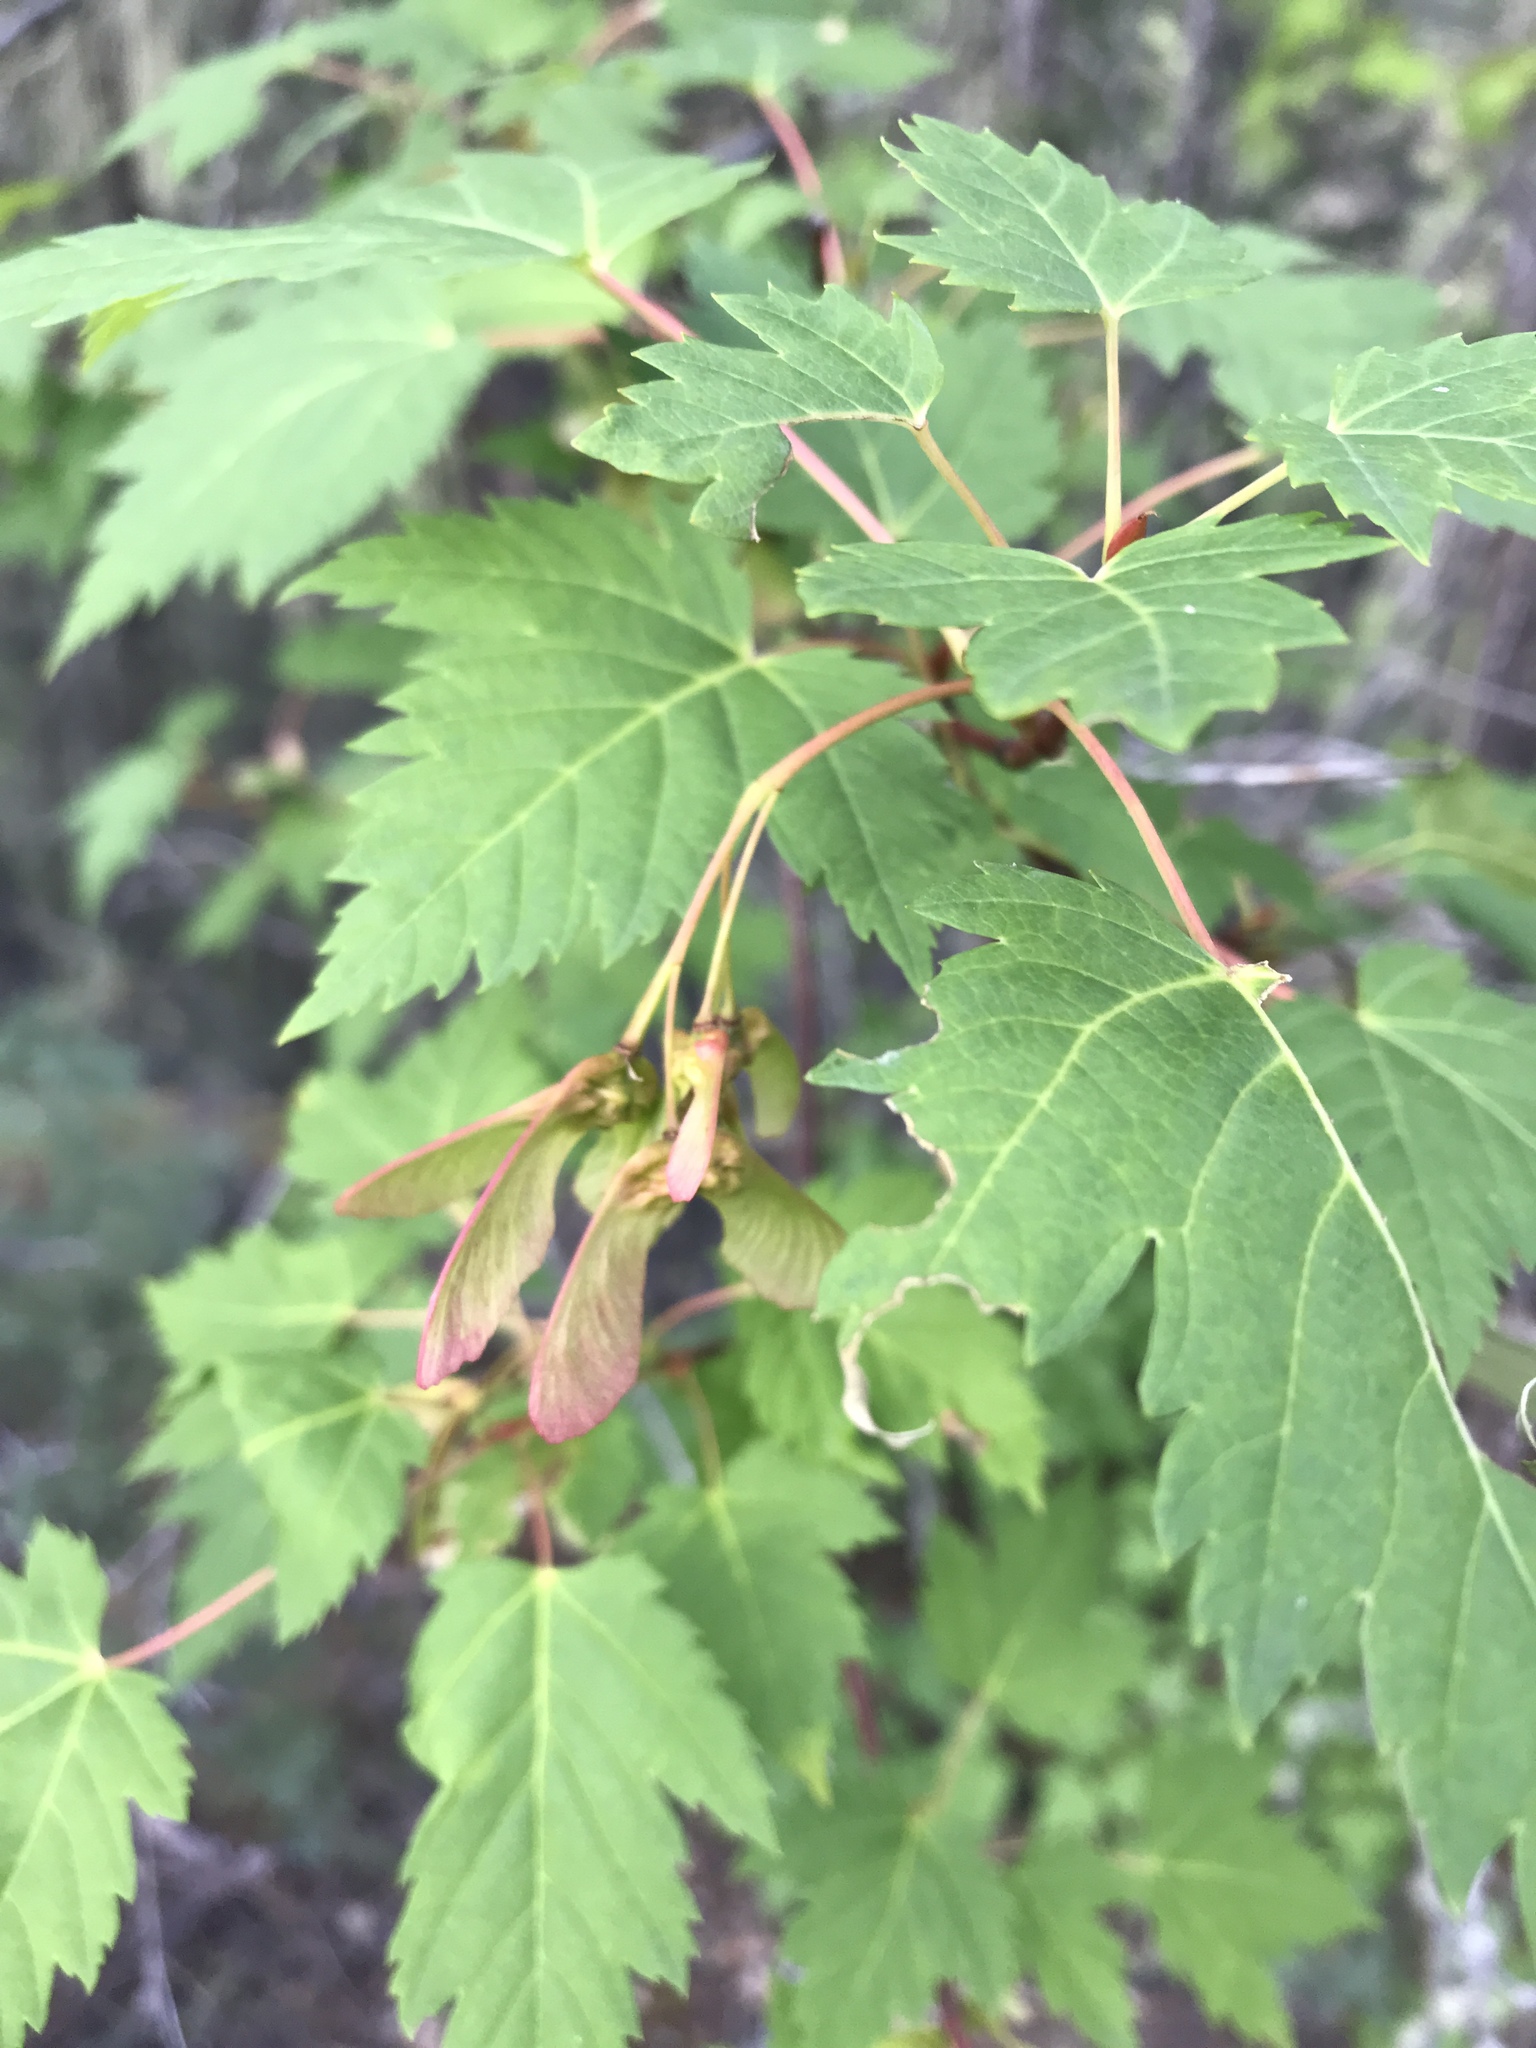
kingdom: Plantae
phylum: Tracheophyta
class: Magnoliopsida
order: Sapindales
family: Sapindaceae
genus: Acer
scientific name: Acer glabrum
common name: Rocky mountain maple
